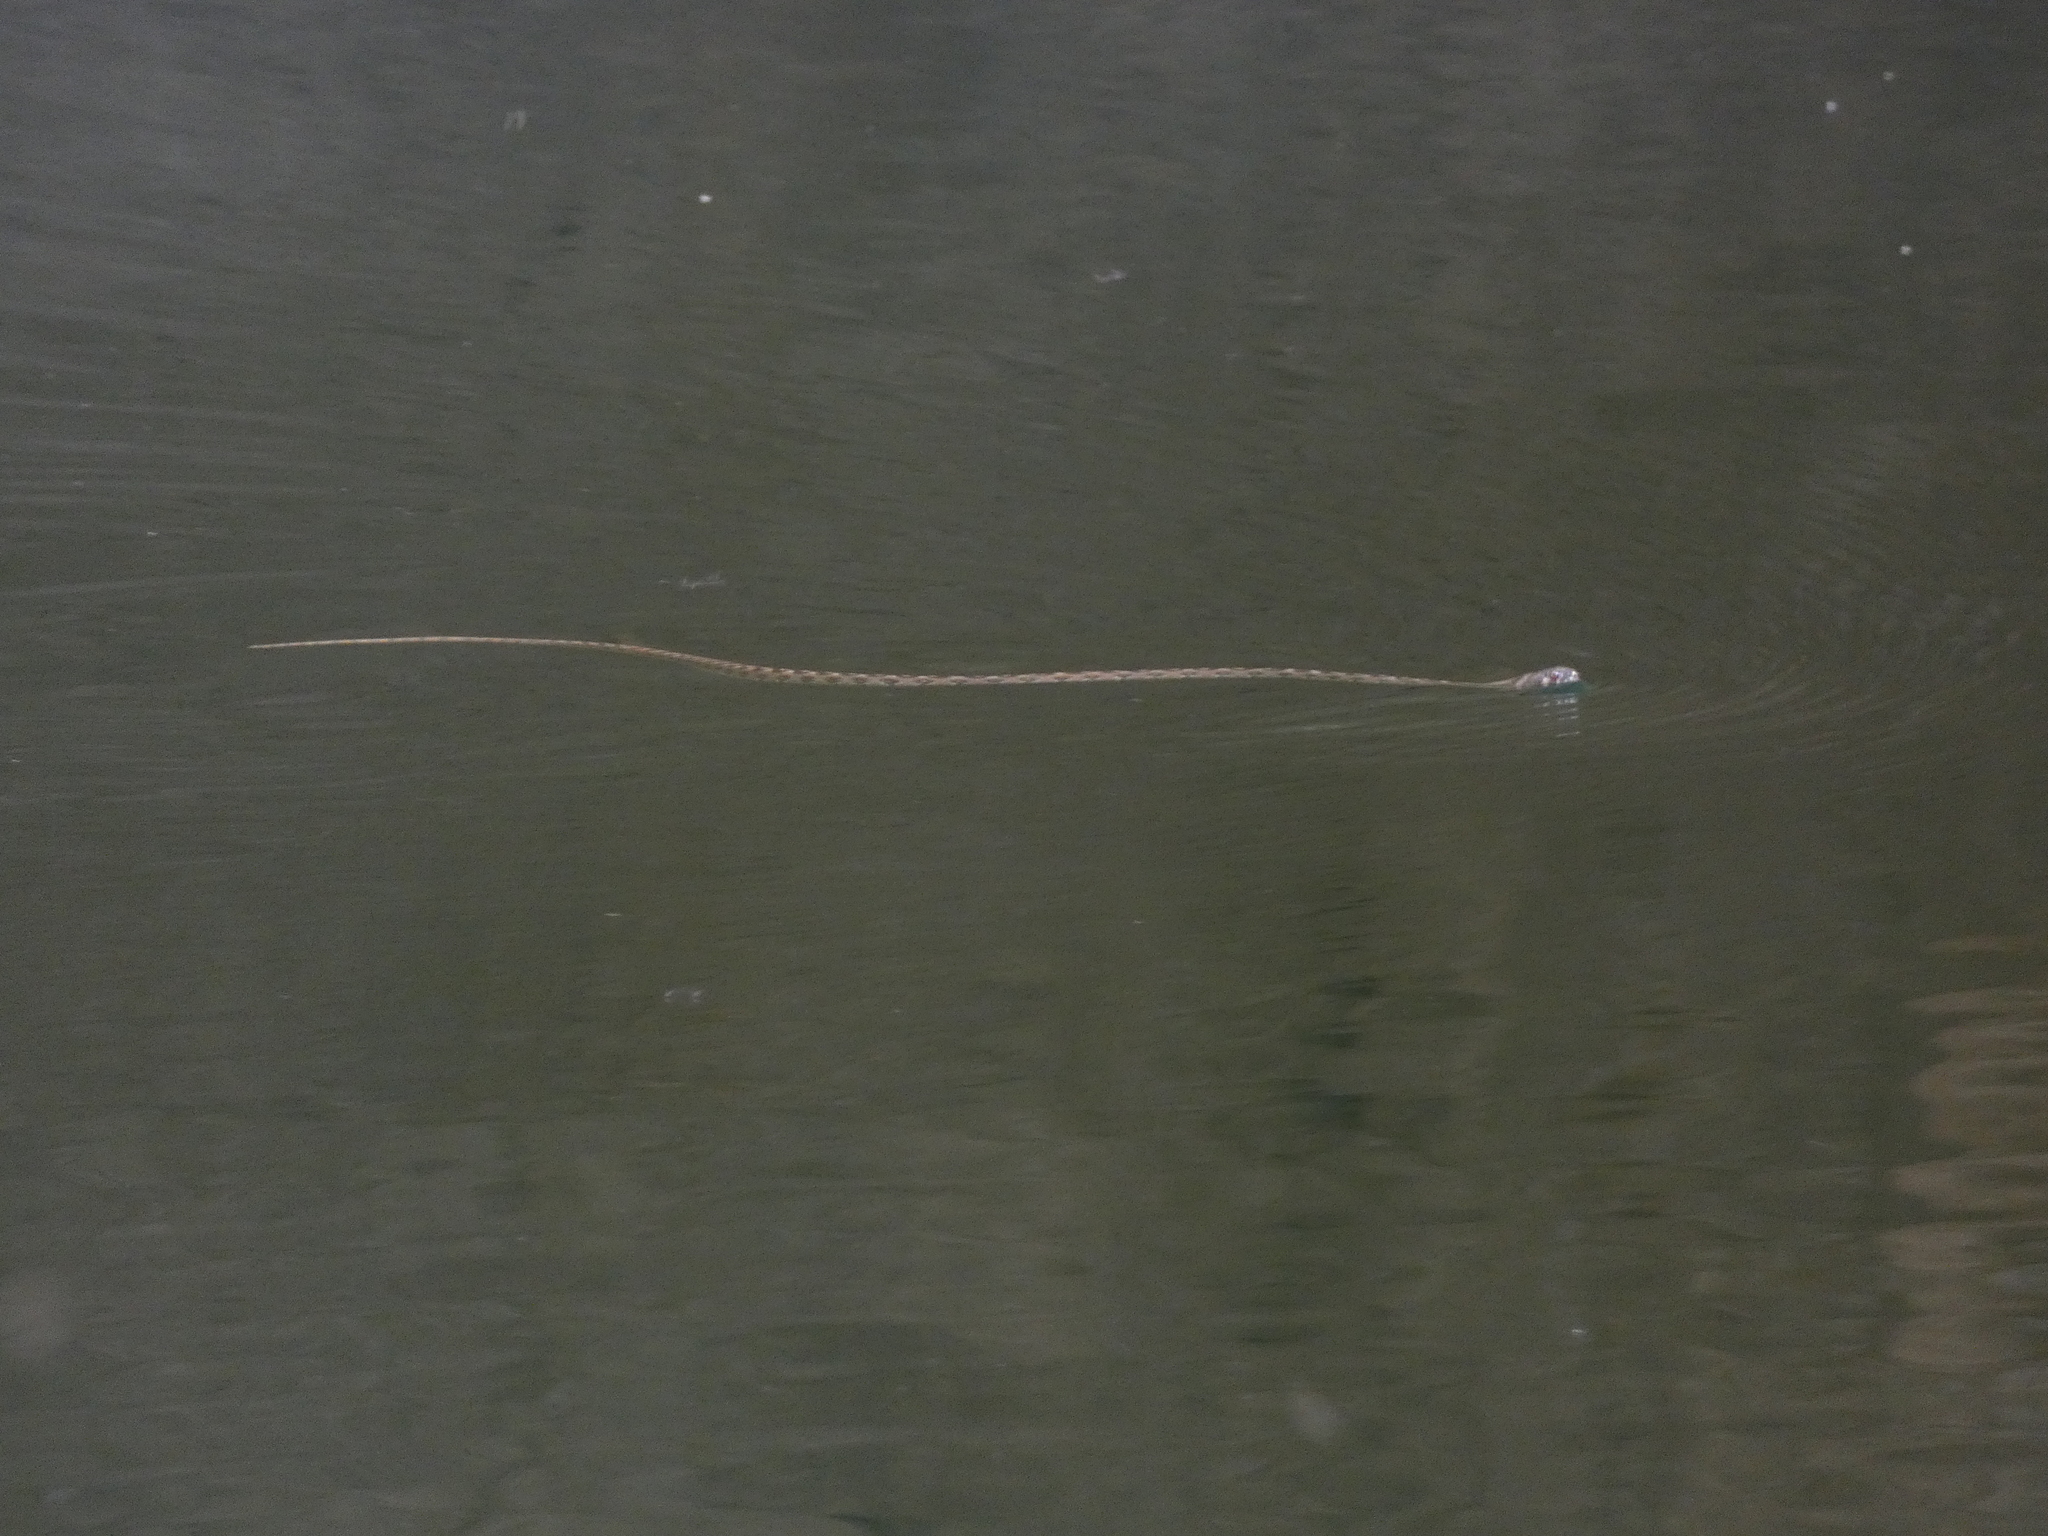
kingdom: Animalia
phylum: Chordata
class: Squamata
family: Colubridae
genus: Natrix
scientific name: Natrix maura
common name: Viperine water snake
